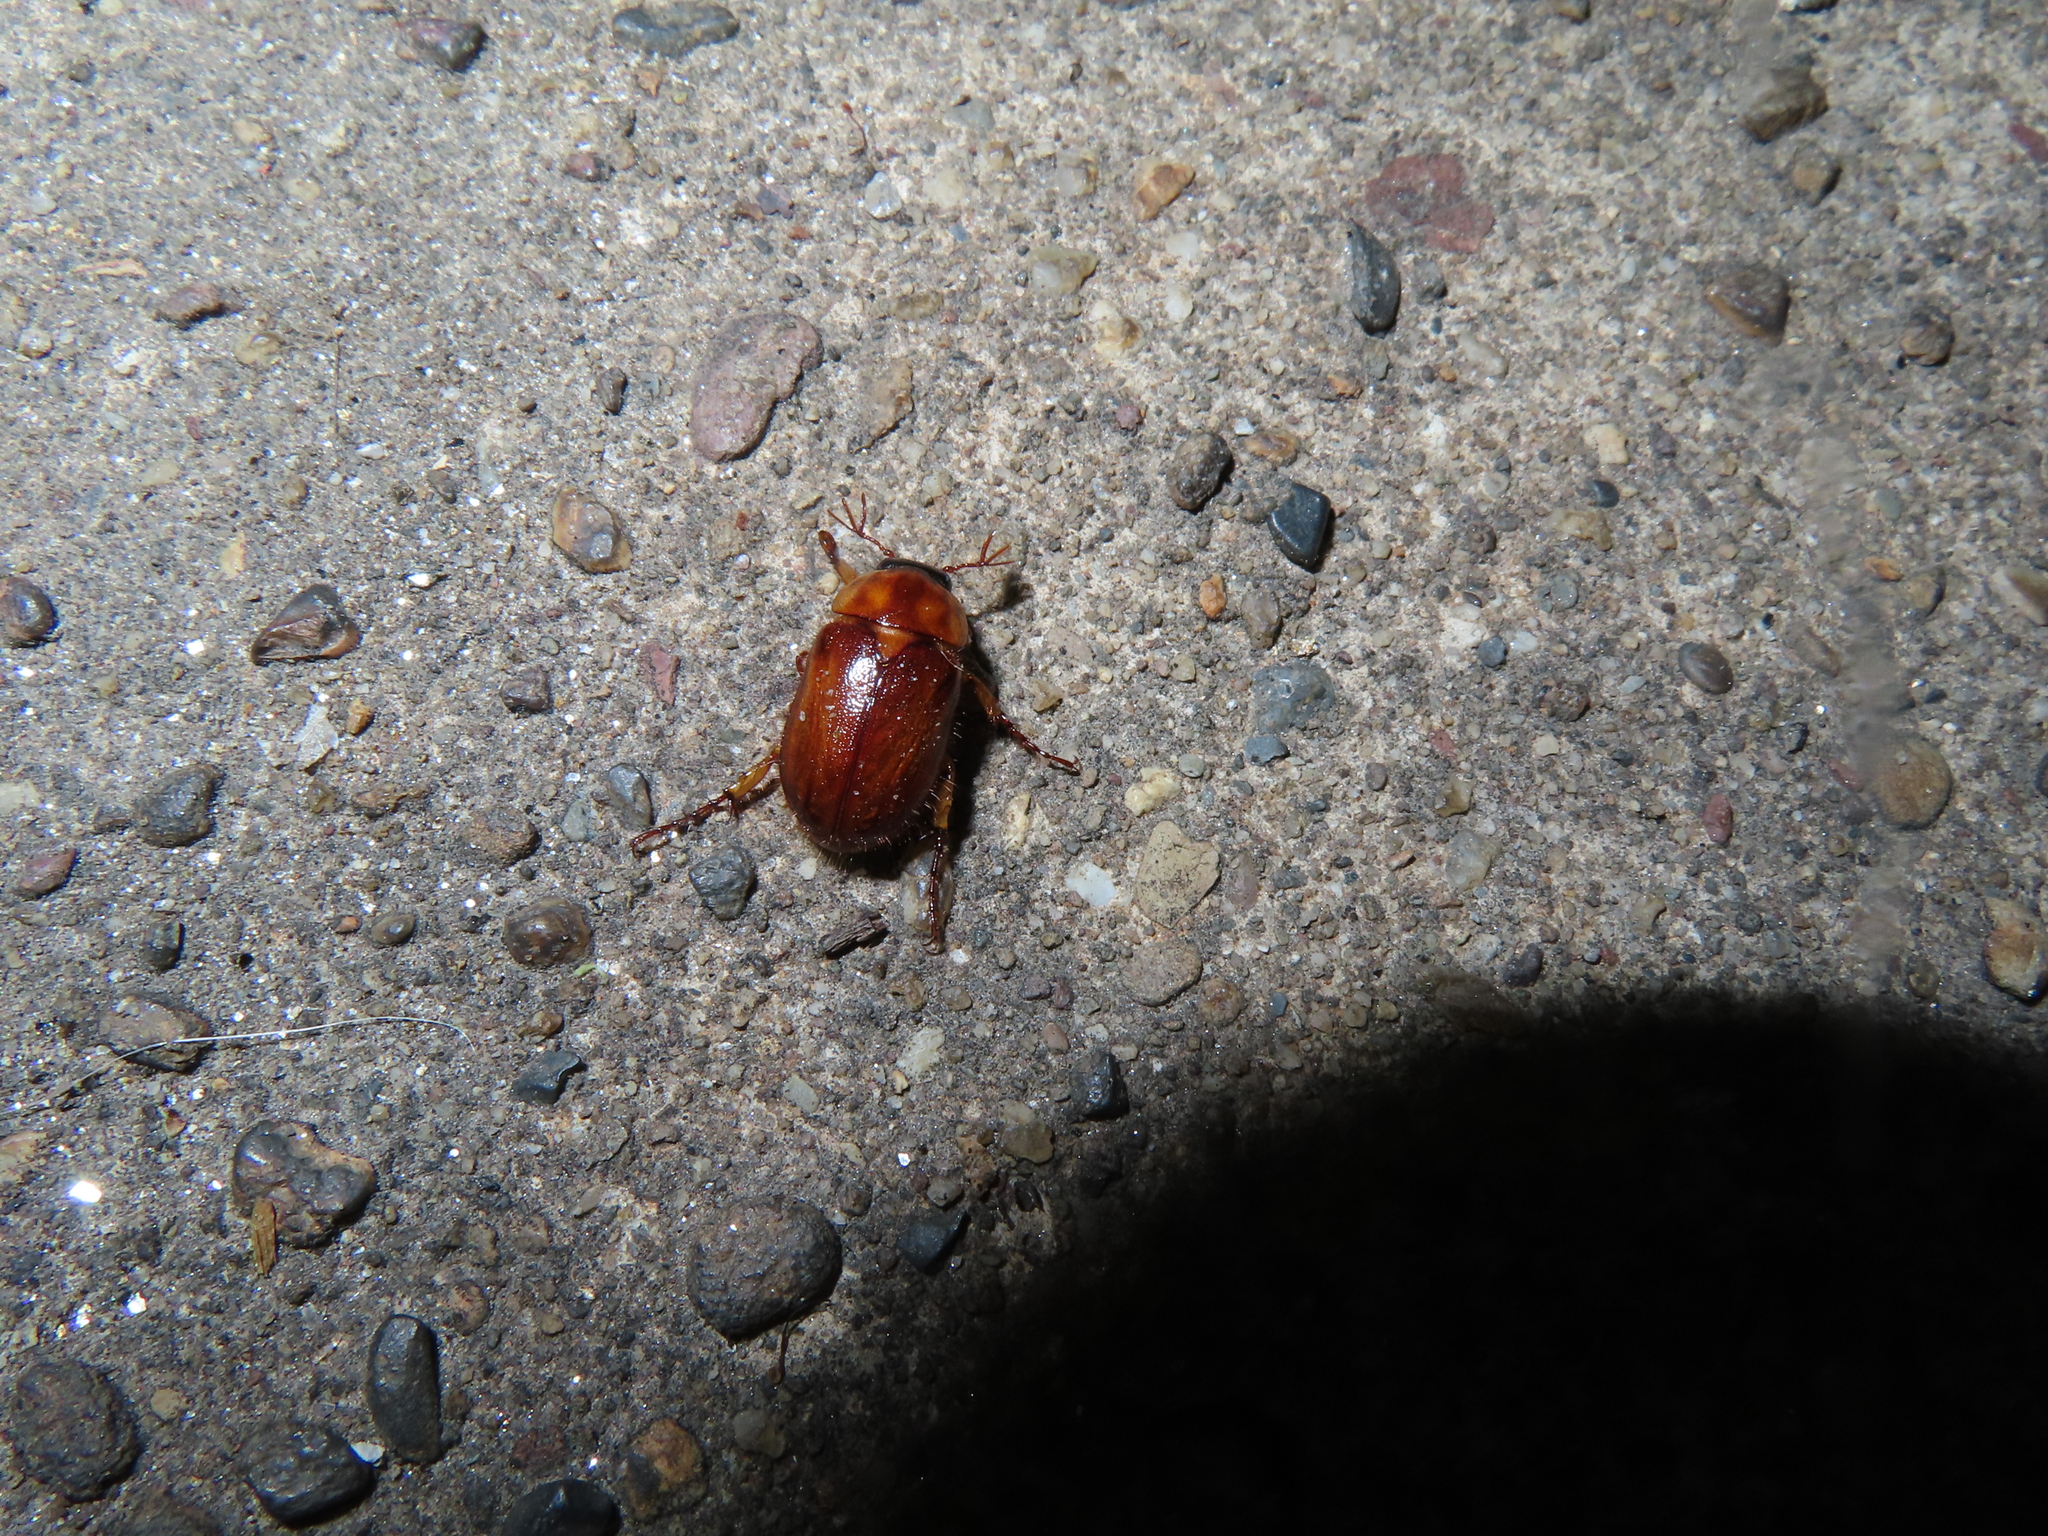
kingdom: Animalia
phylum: Arthropoda
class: Insecta
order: Coleoptera
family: Scarabaeidae
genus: Cyclocephala
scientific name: Cyclocephala lurida
